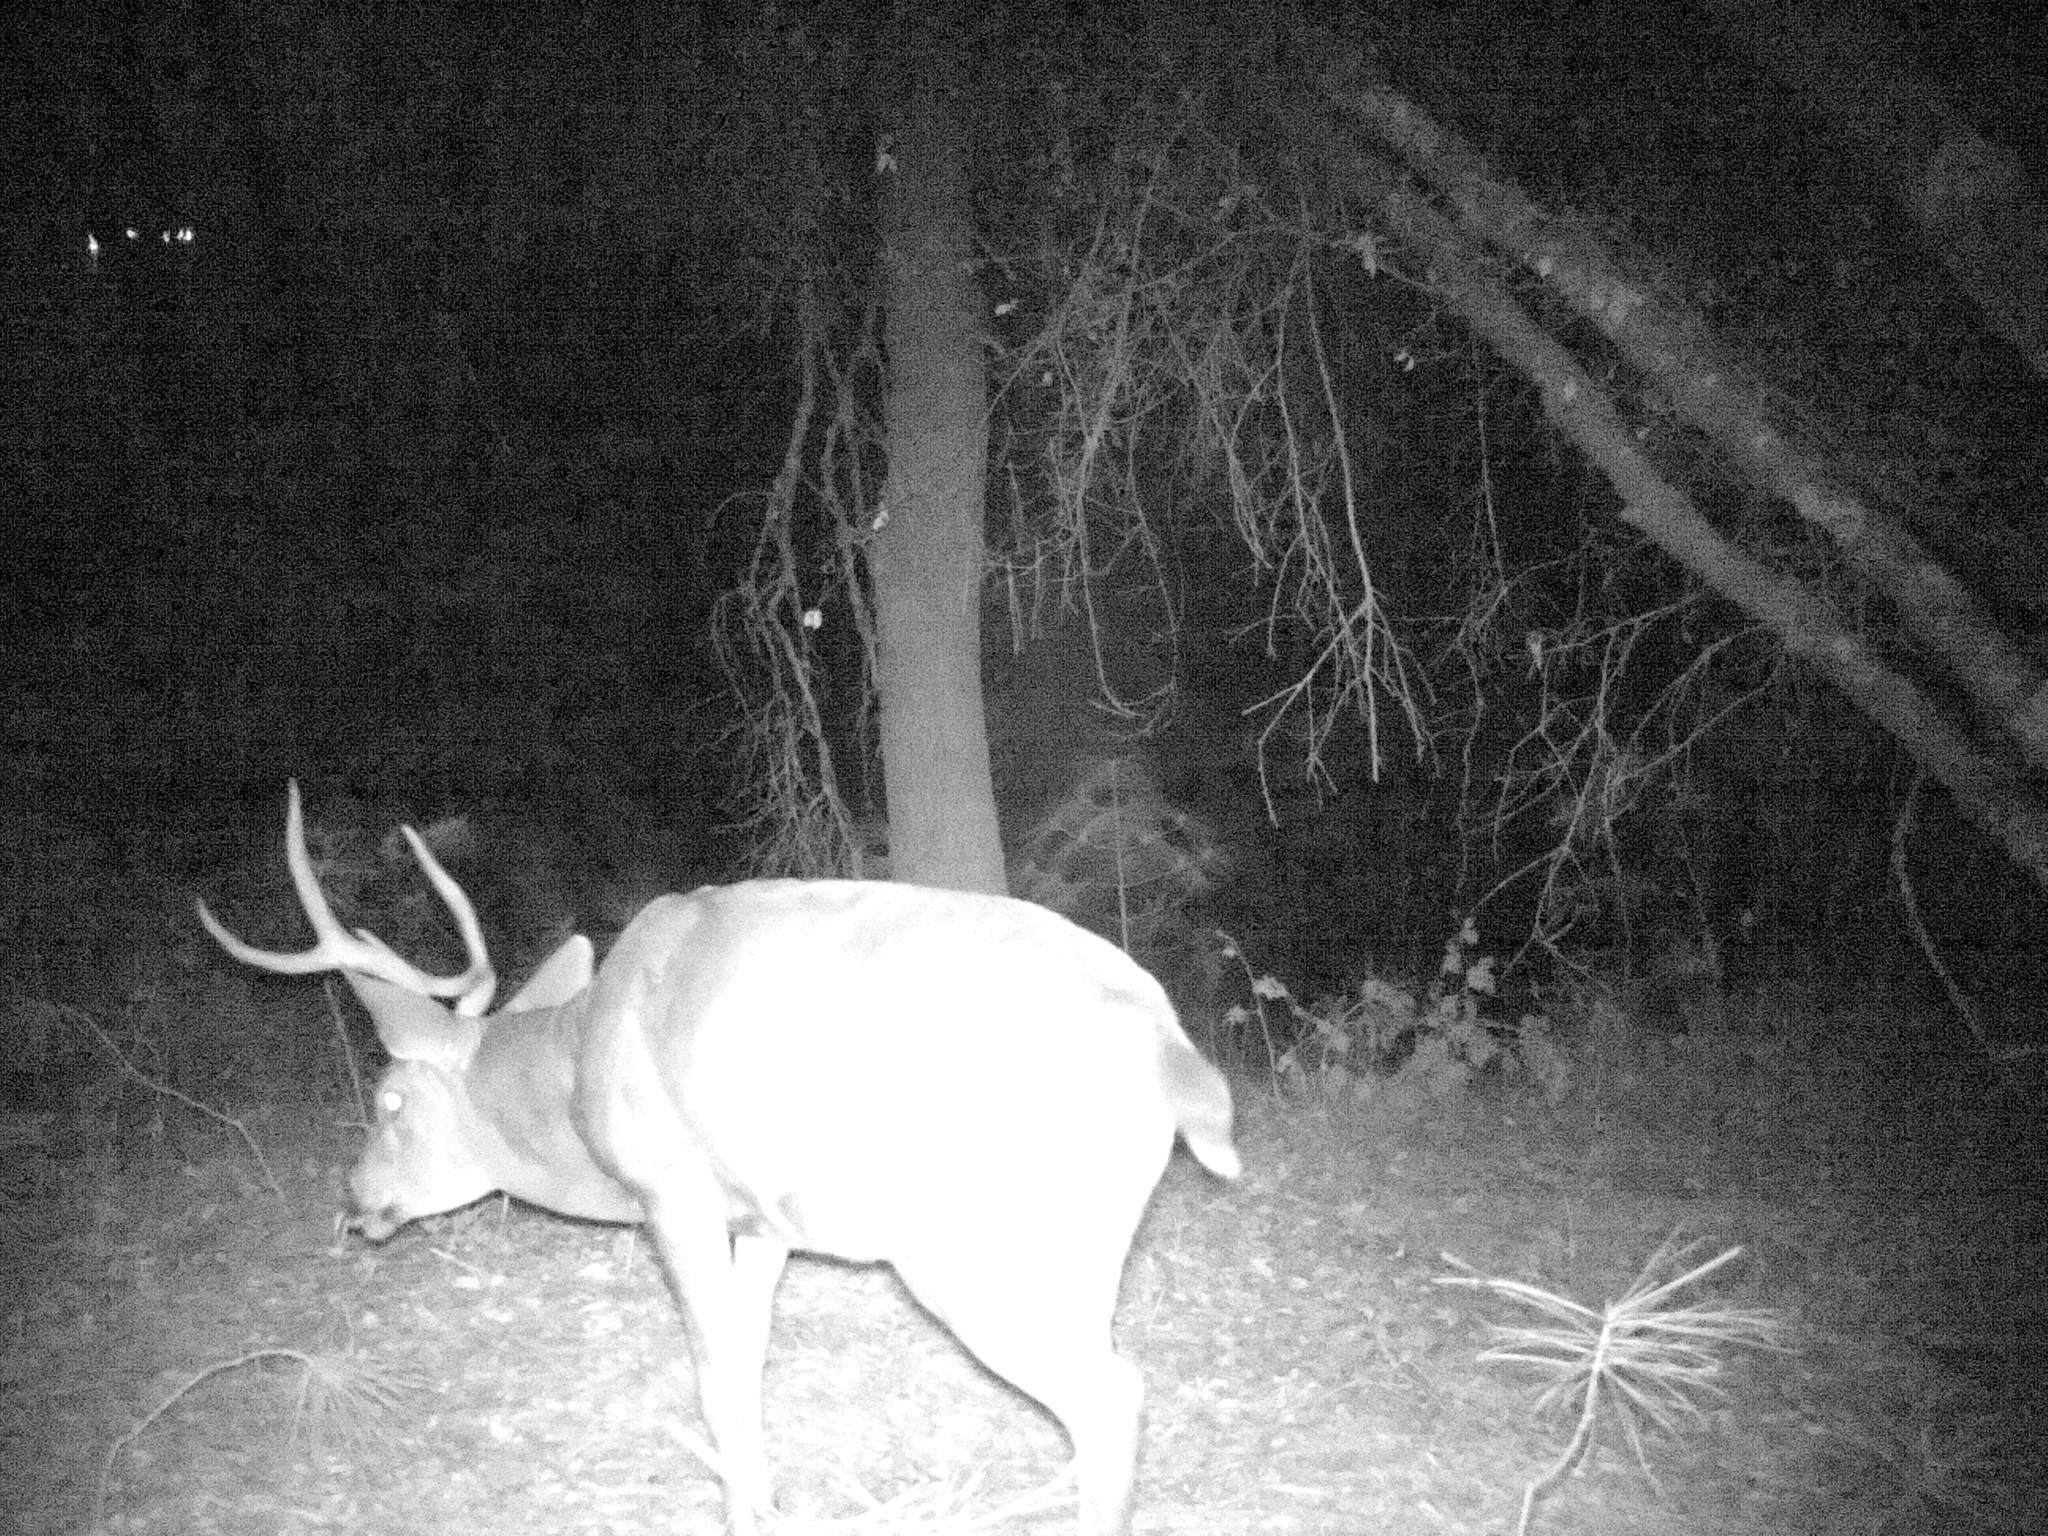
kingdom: Animalia
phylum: Chordata
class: Mammalia
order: Artiodactyla
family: Cervidae
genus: Odocoileus
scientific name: Odocoileus hemionus
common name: Mule deer
